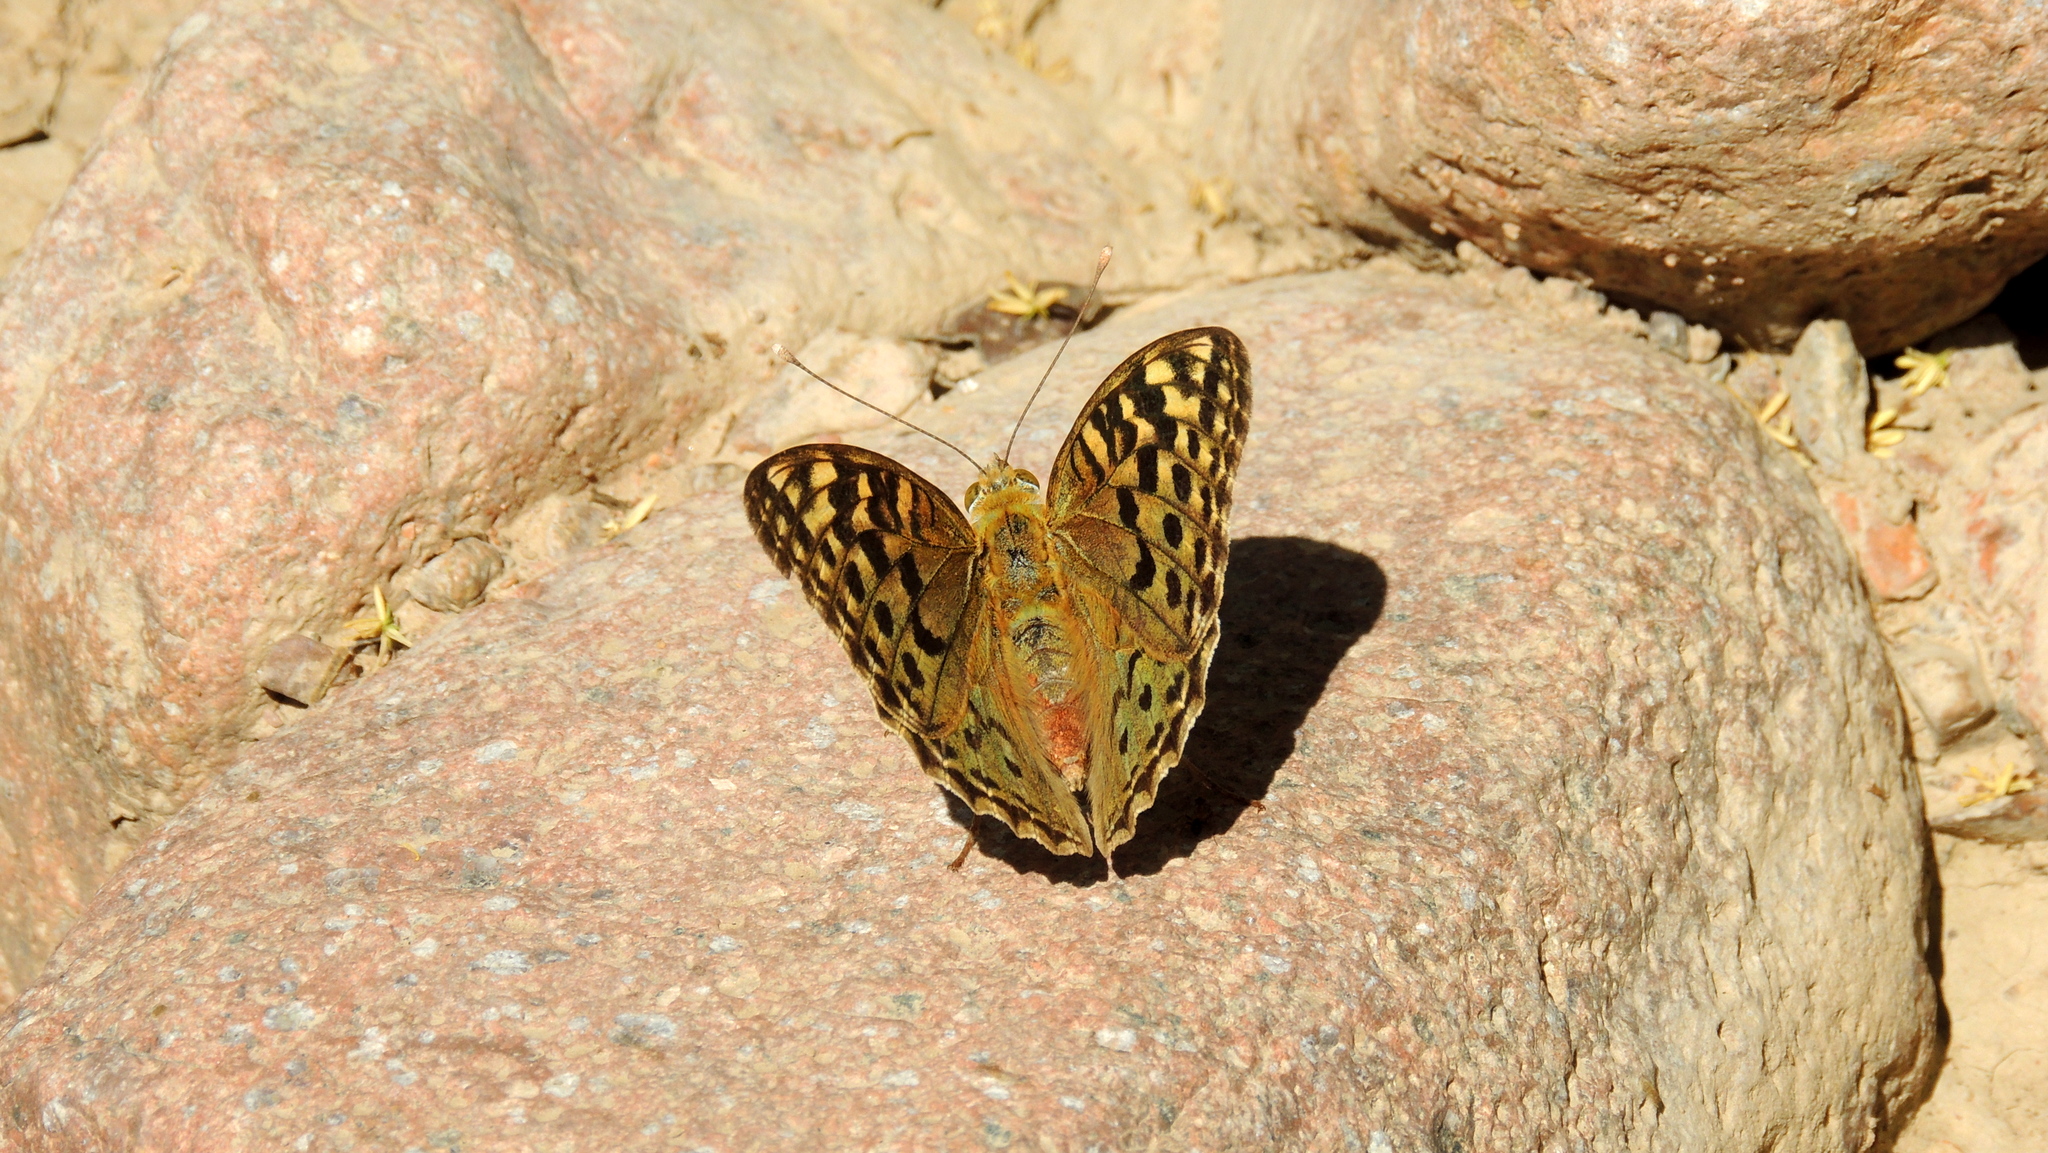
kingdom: Animalia
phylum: Arthropoda
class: Insecta
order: Lepidoptera
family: Nymphalidae
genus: Damora
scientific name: Damora pandora
